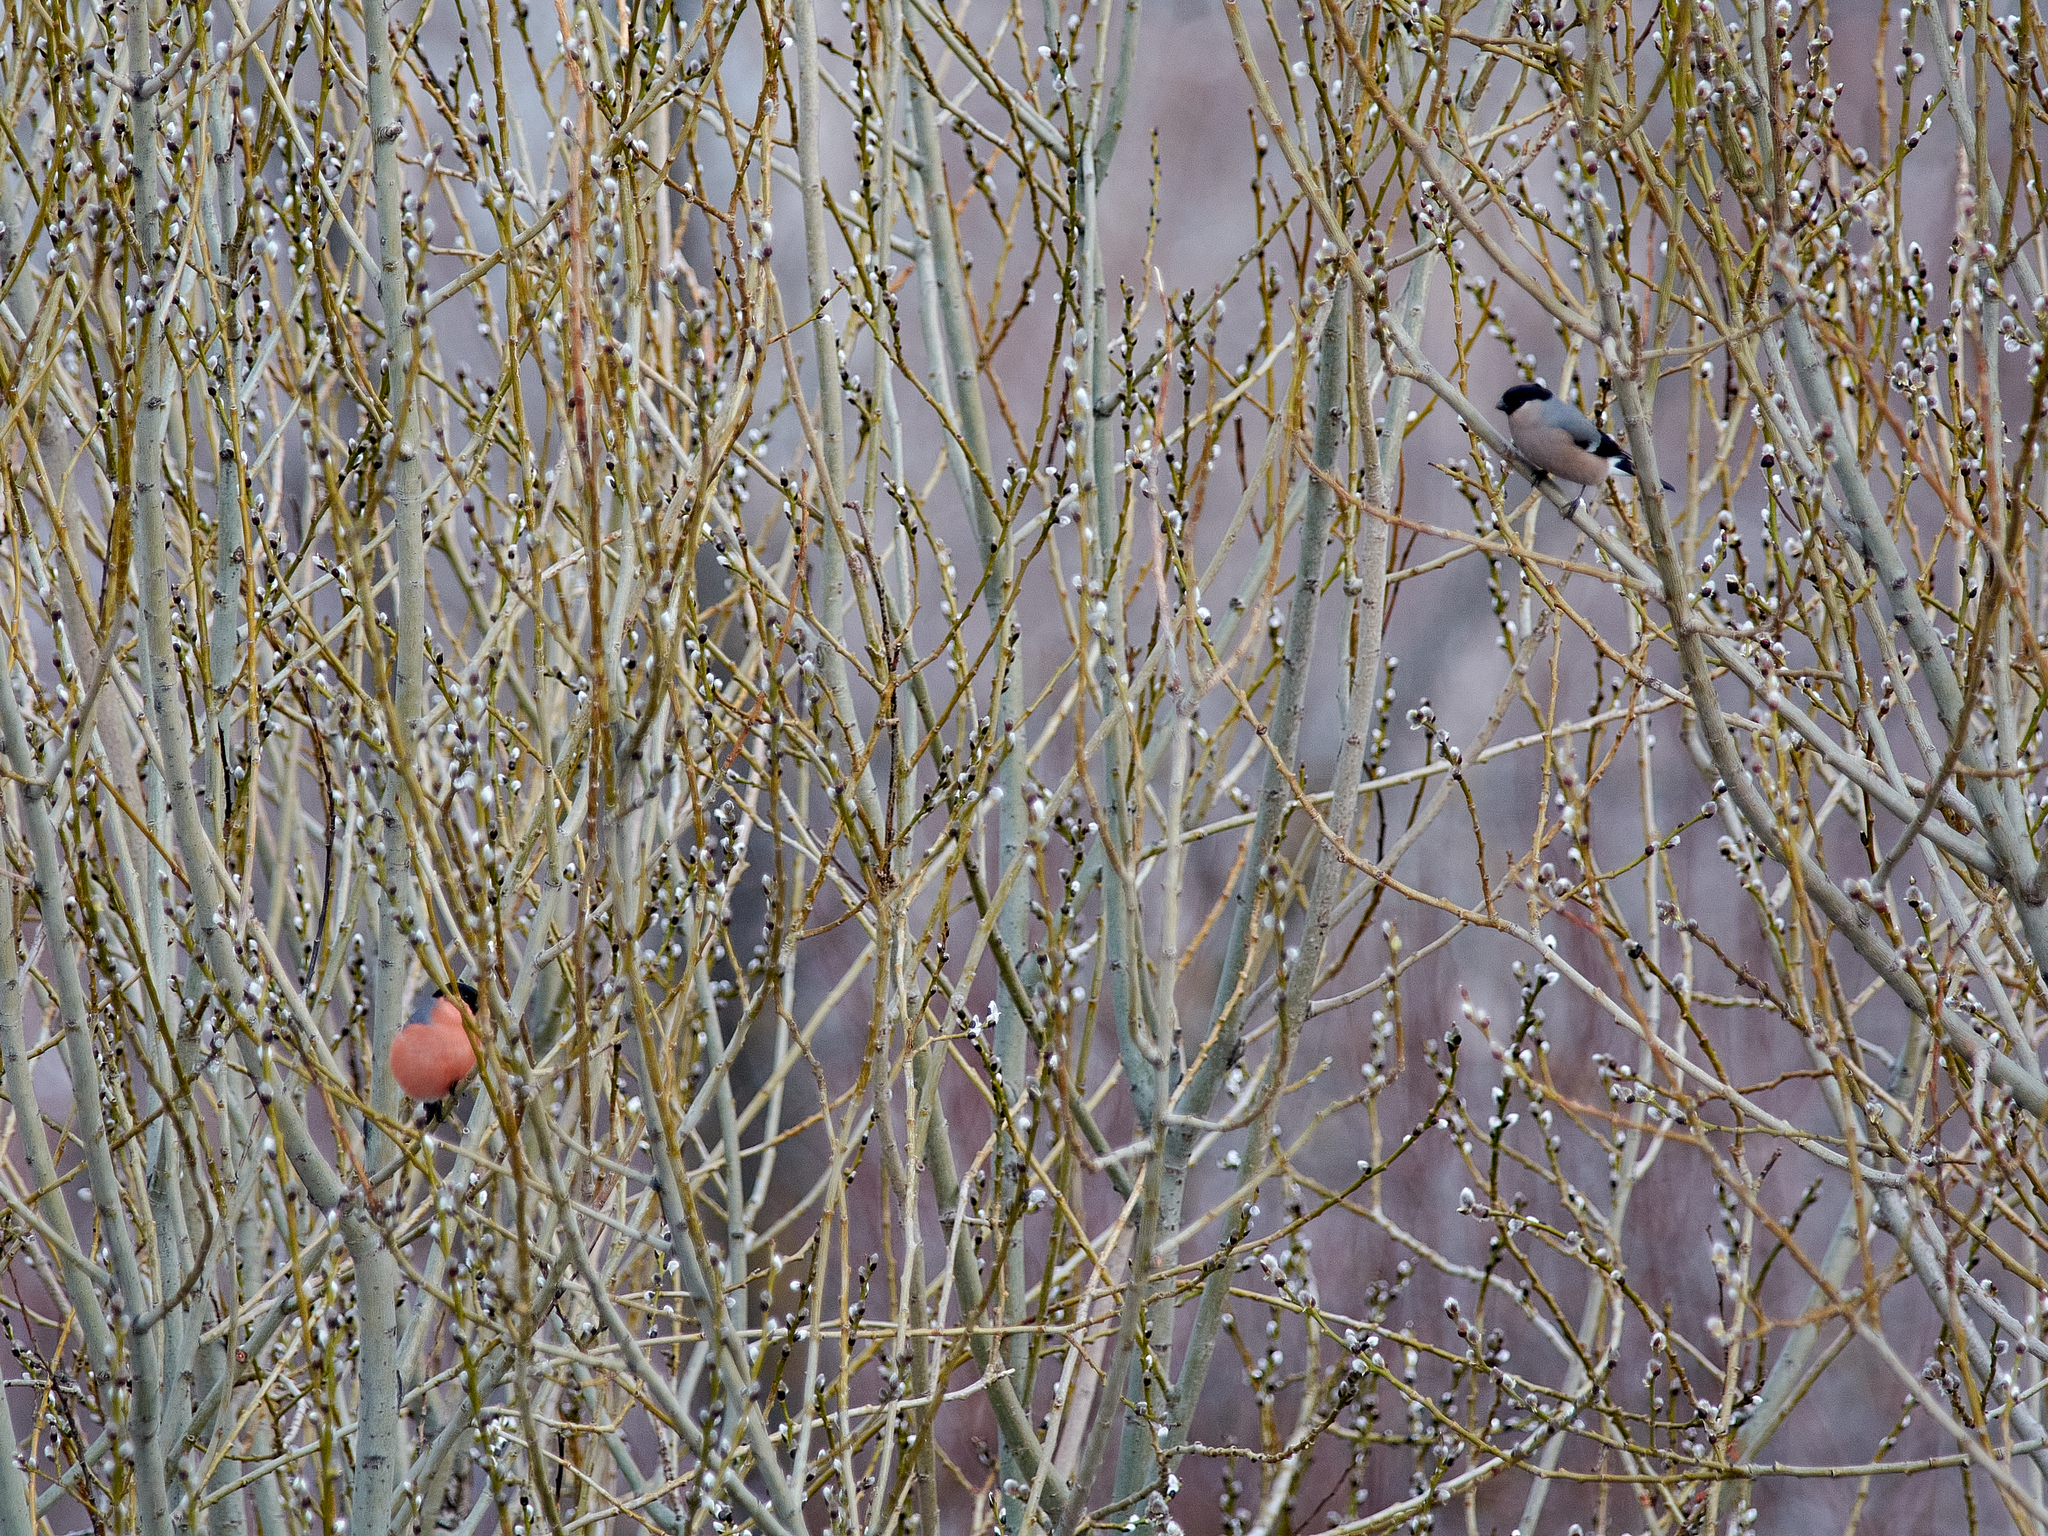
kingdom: Animalia
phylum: Chordata
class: Aves
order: Passeriformes
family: Fringillidae
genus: Pyrrhula
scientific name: Pyrrhula pyrrhula
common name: Eurasian bullfinch
